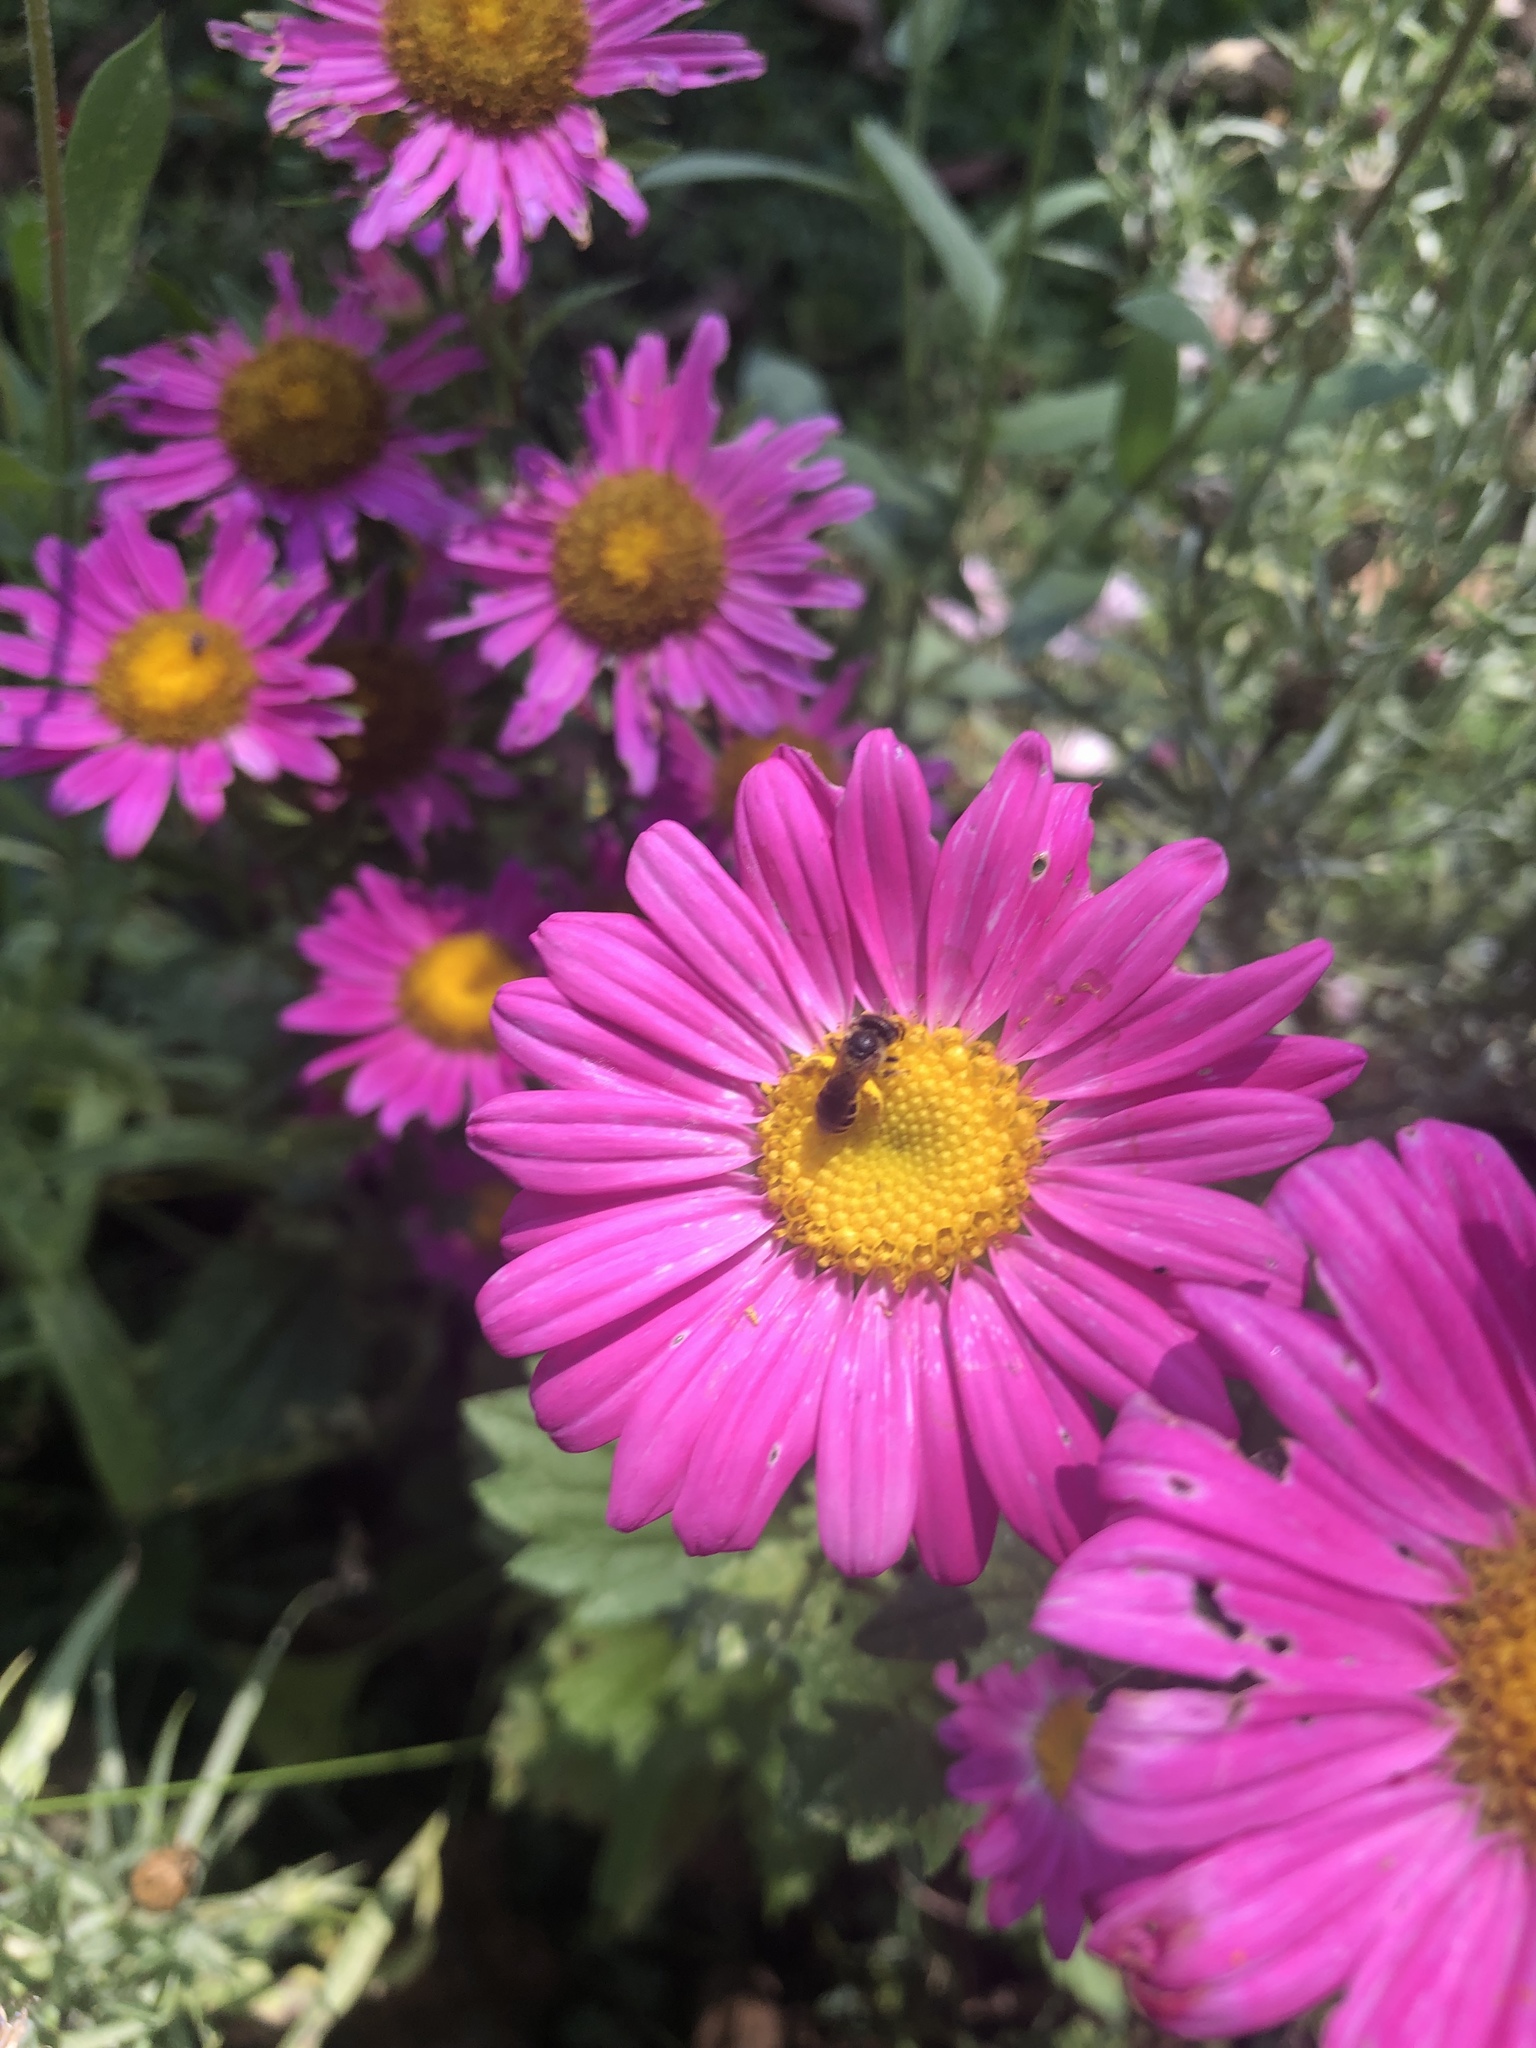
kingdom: Animalia
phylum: Arthropoda
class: Insecta
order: Hymenoptera
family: Halictidae
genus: Halictus
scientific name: Halictus ligatus
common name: Ligated furrow bee
